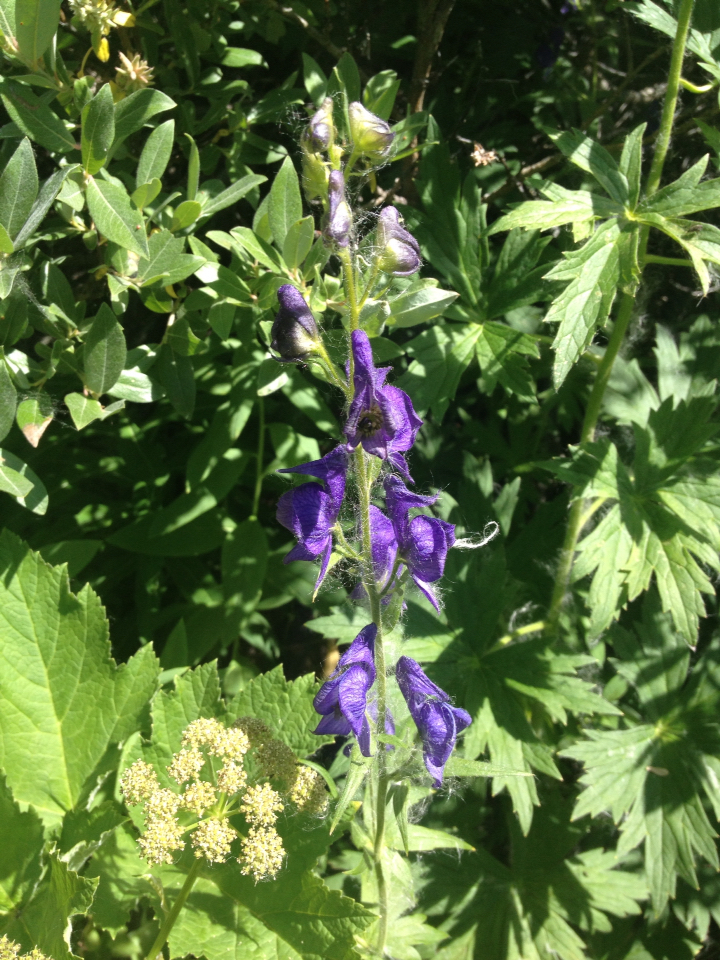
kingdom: Plantae
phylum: Tracheophyta
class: Magnoliopsida
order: Ranunculales
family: Ranunculaceae
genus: Aconitum
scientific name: Aconitum columbianum
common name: Columbia aconite
